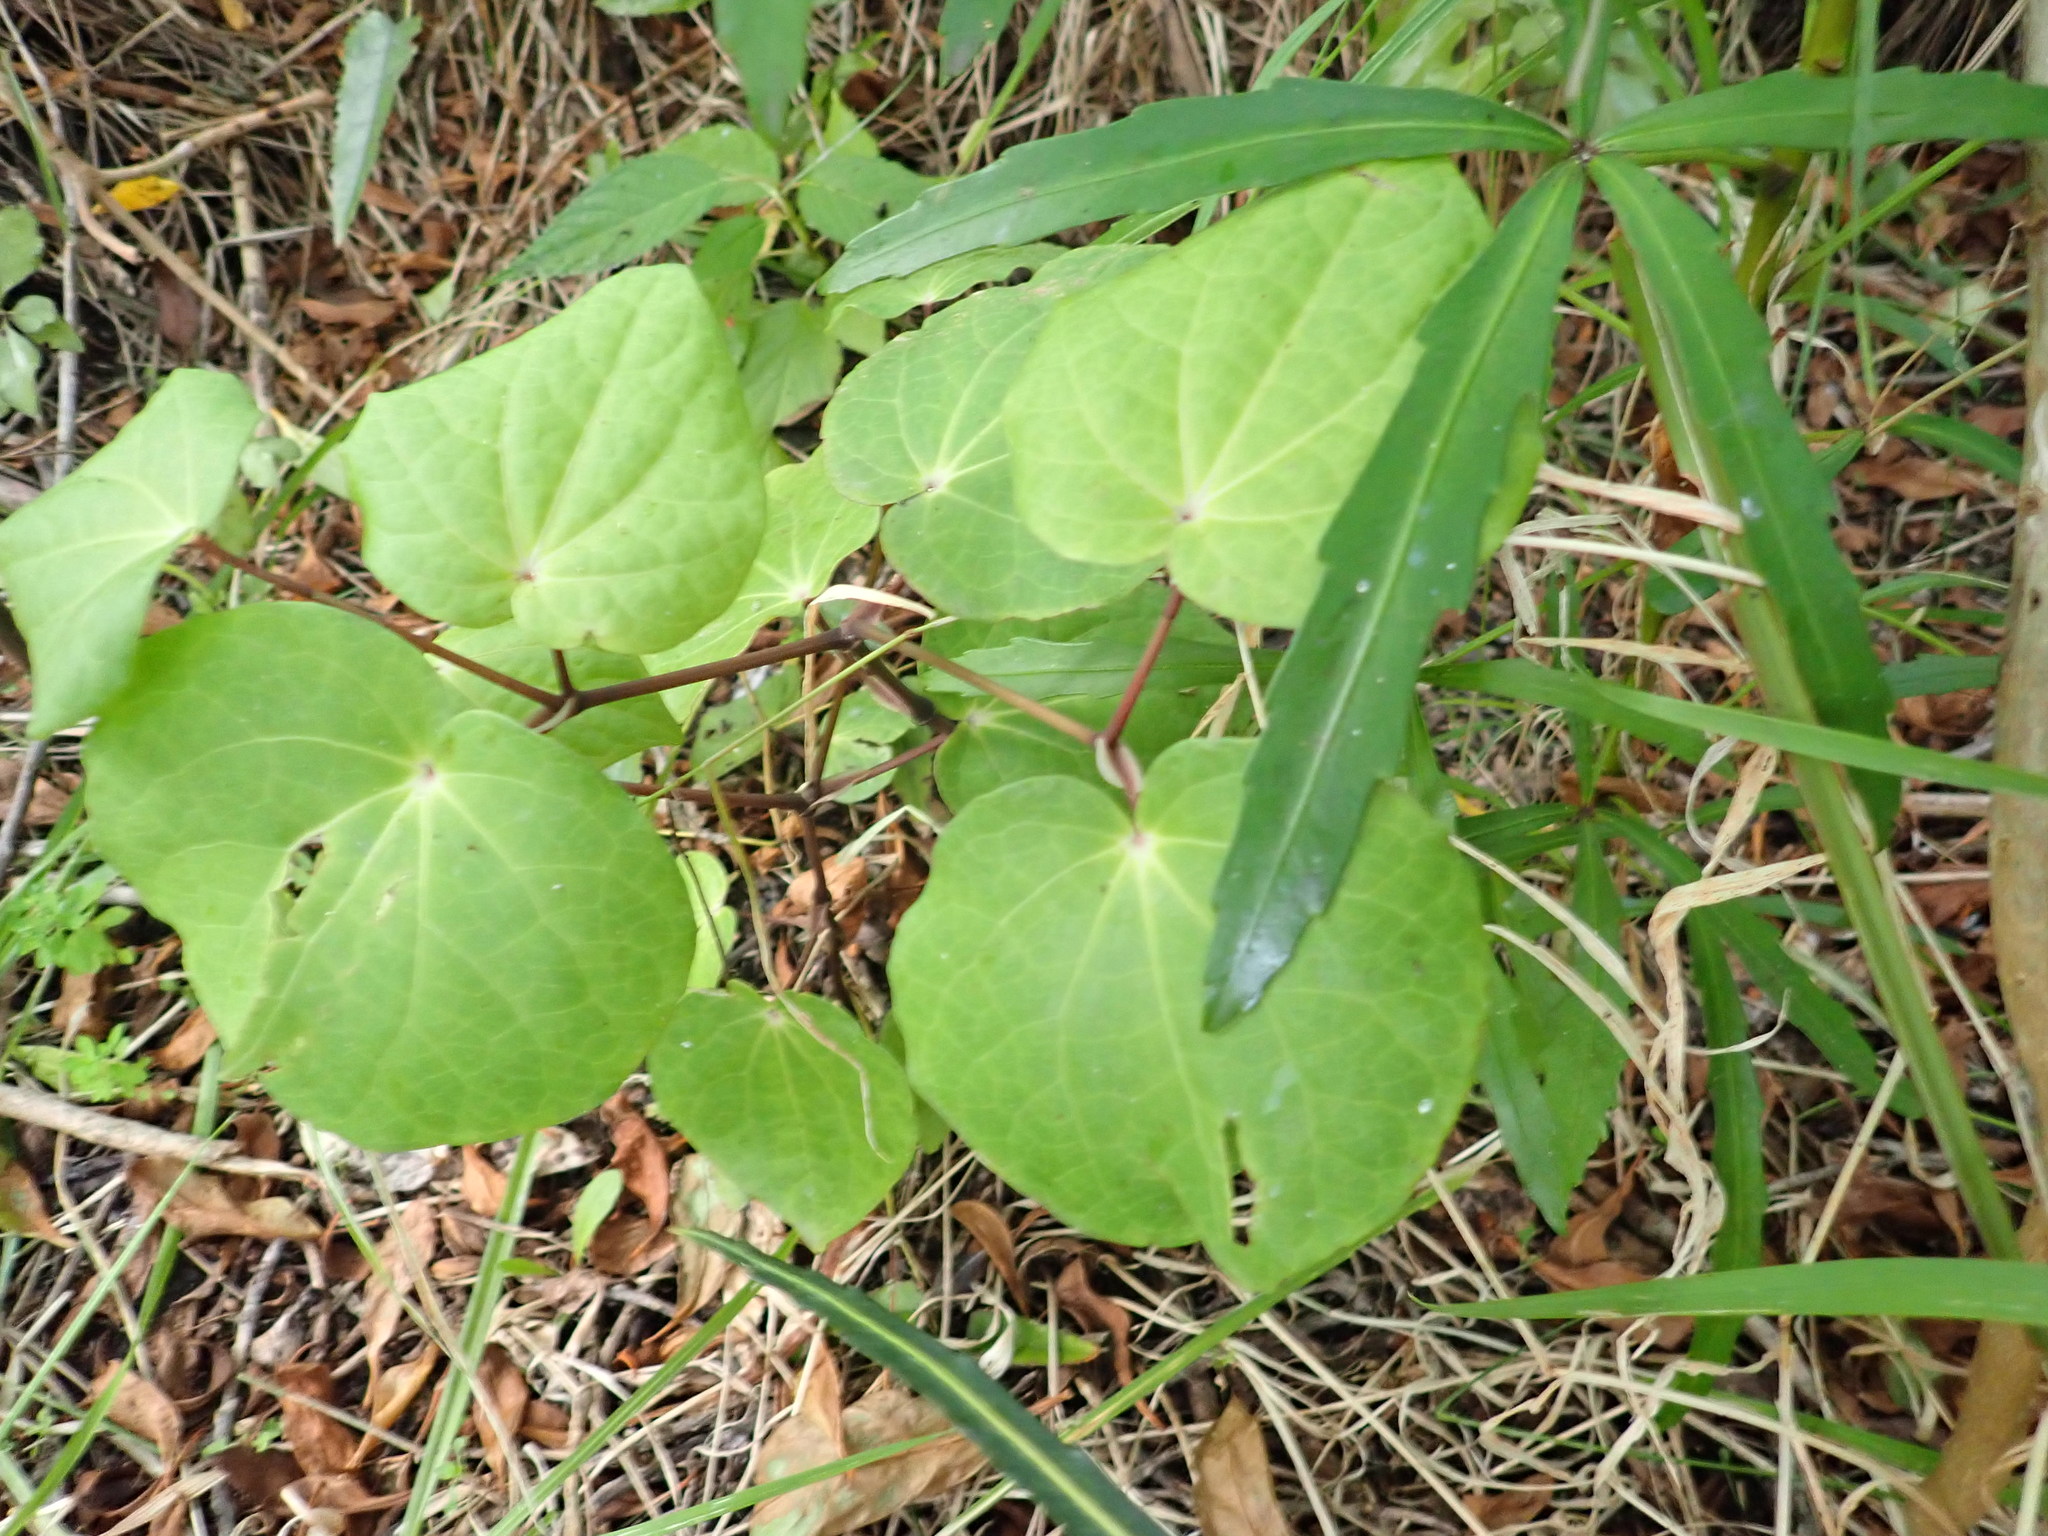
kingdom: Plantae
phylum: Tracheophyta
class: Magnoliopsida
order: Piperales
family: Piperaceae
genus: Macropiper
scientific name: Macropiper excelsum
